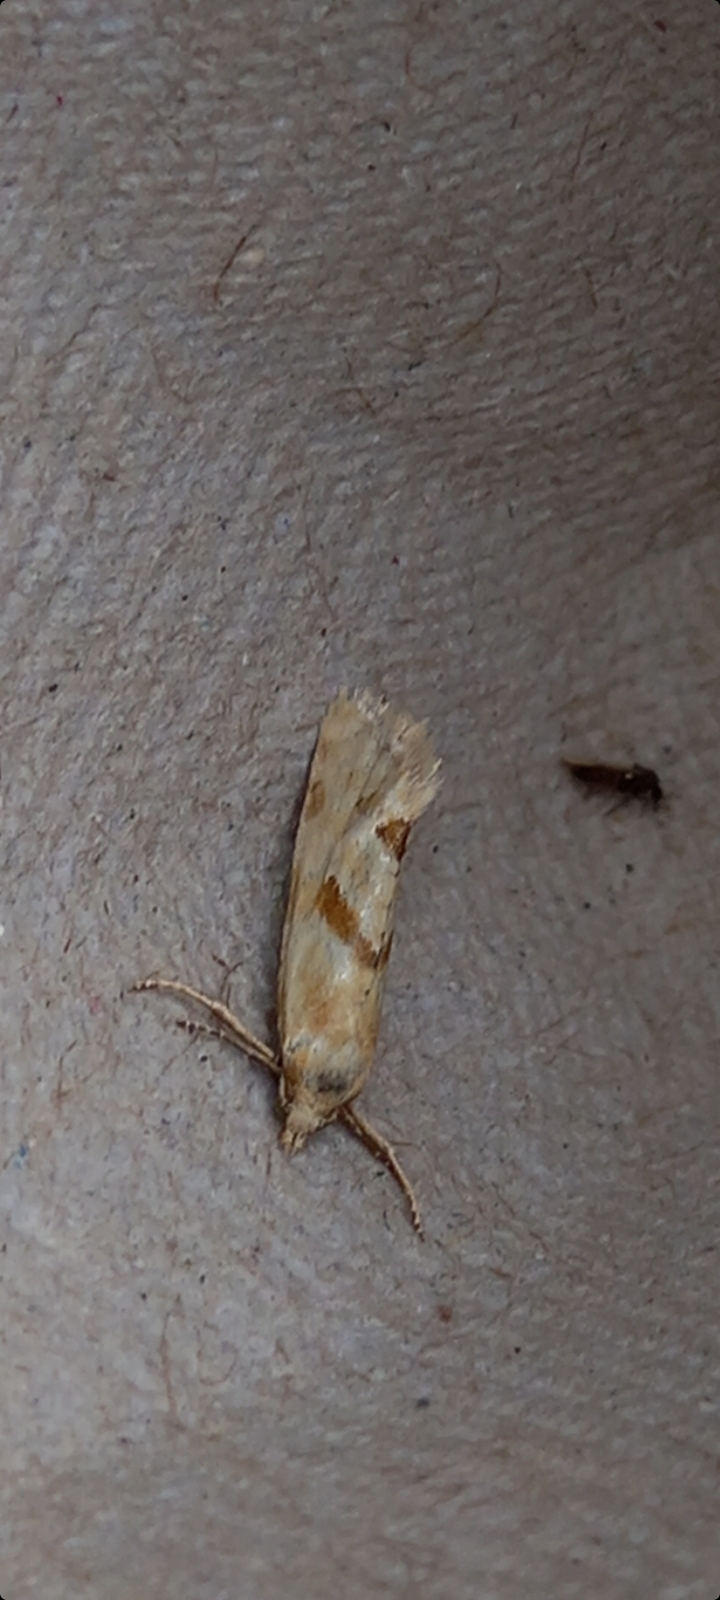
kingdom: Animalia
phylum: Arthropoda
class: Insecta
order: Lepidoptera
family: Tortricidae
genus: Aethes
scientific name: Aethes smeathmanniana
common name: Yarrow conch
